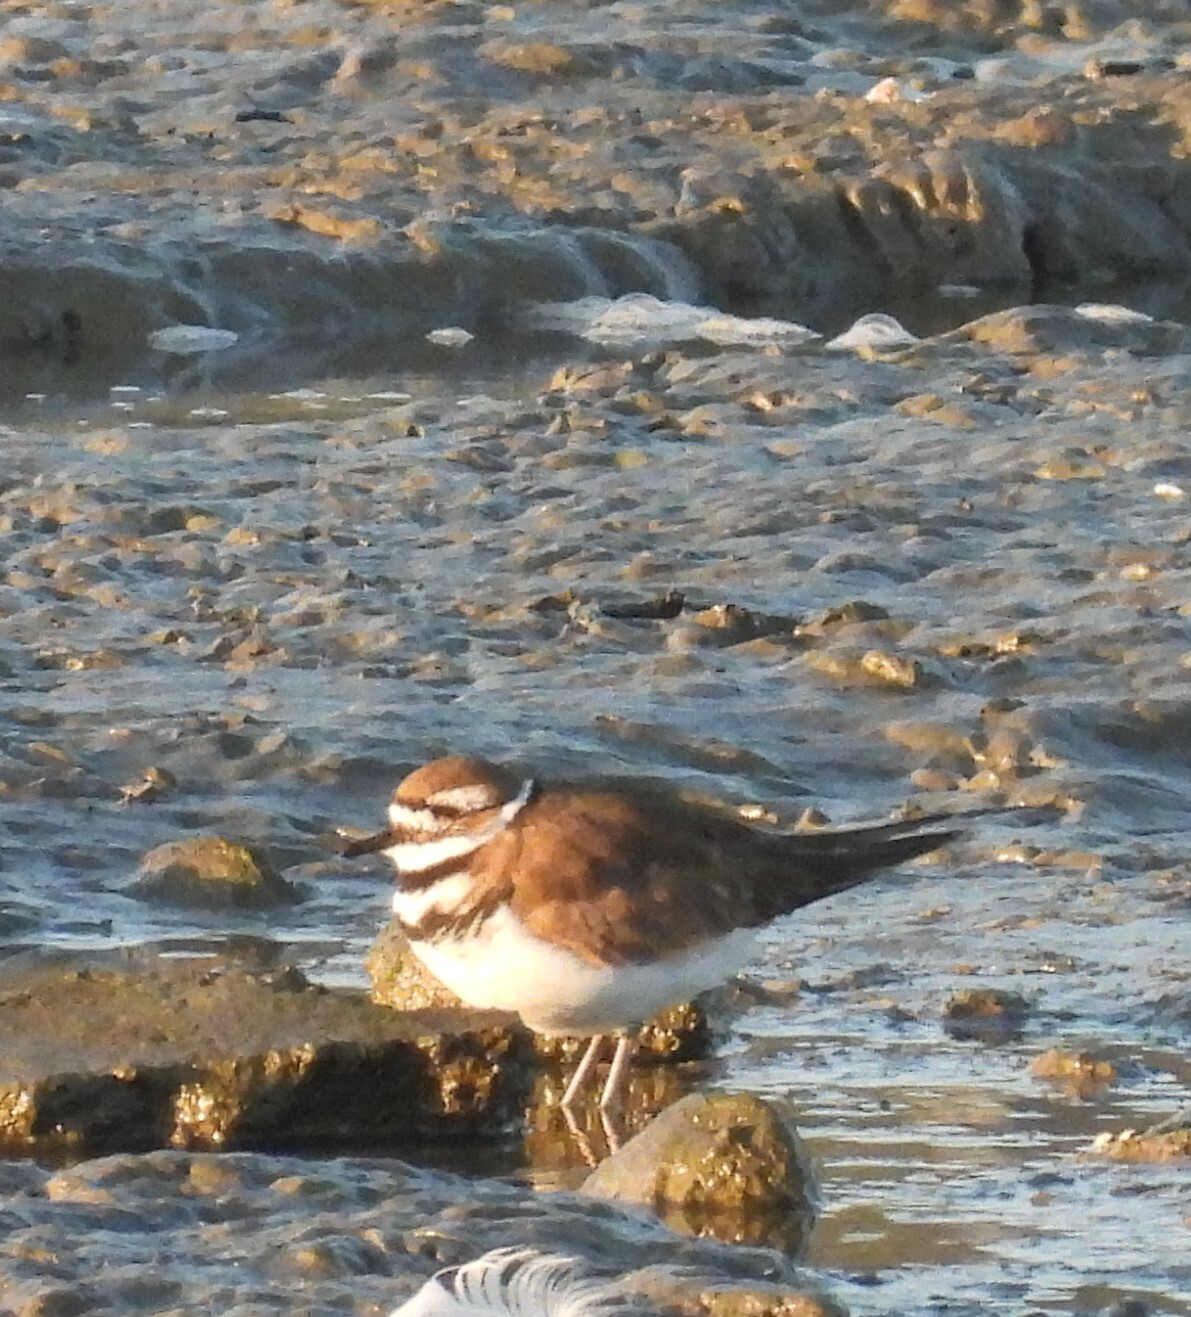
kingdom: Animalia
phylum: Chordata
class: Aves
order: Charadriiformes
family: Charadriidae
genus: Charadrius
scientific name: Charadrius vociferus
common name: Killdeer
